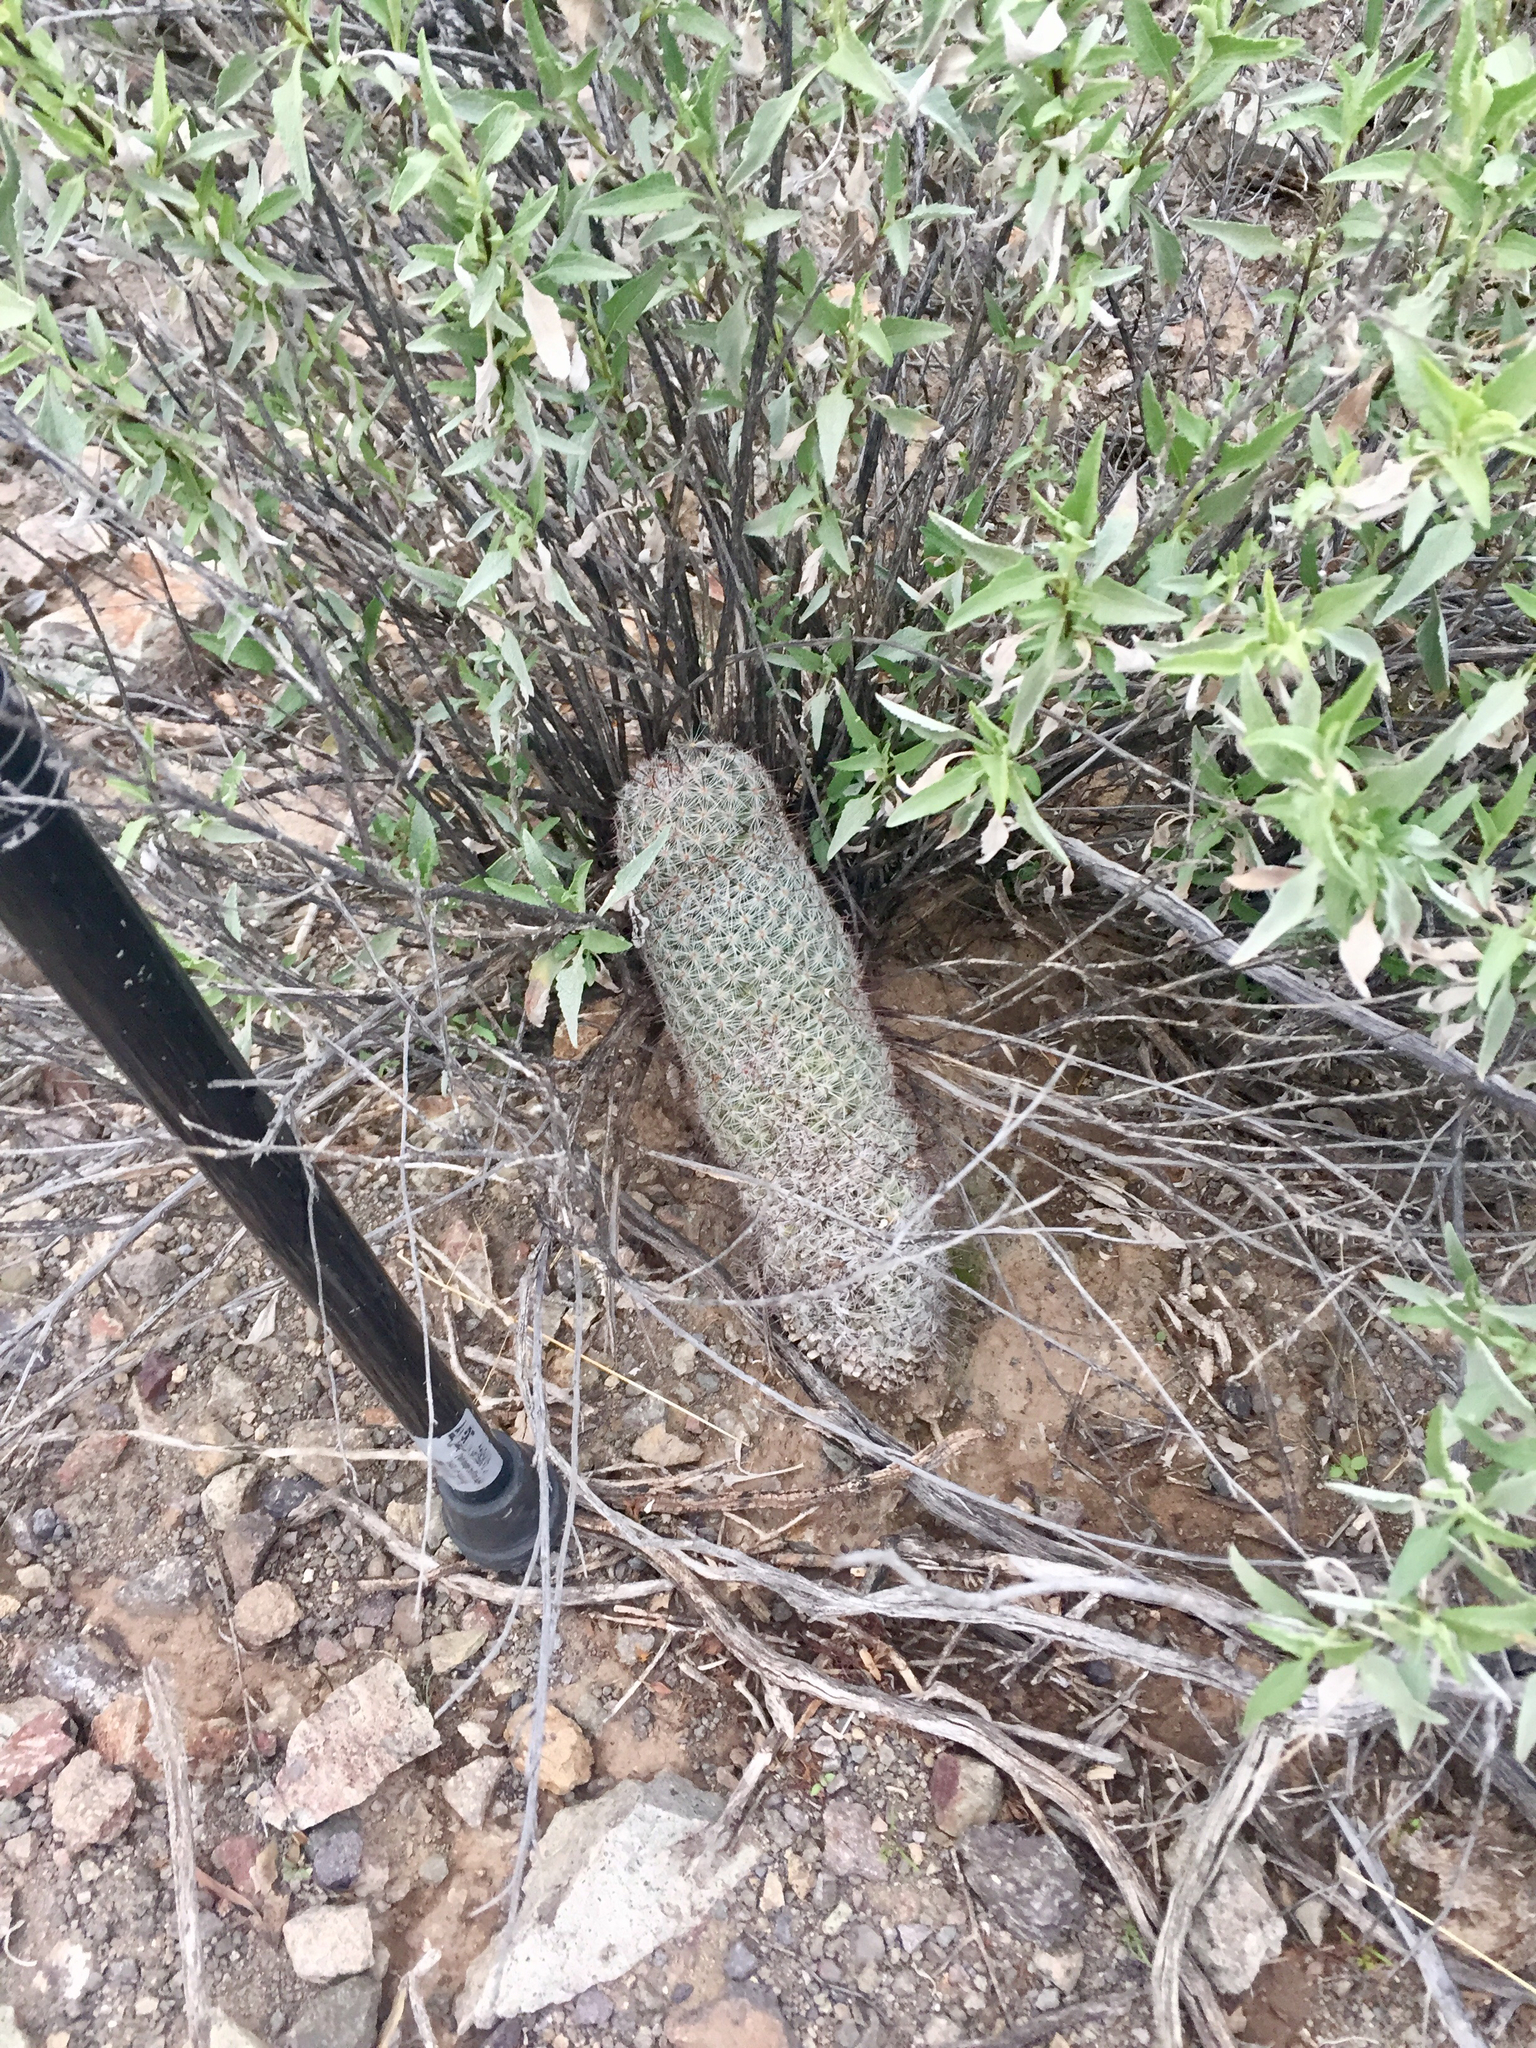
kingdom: Plantae
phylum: Tracheophyta
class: Magnoliopsida
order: Caryophyllales
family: Cactaceae
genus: Cochemiea
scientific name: Cochemiea grahamii
